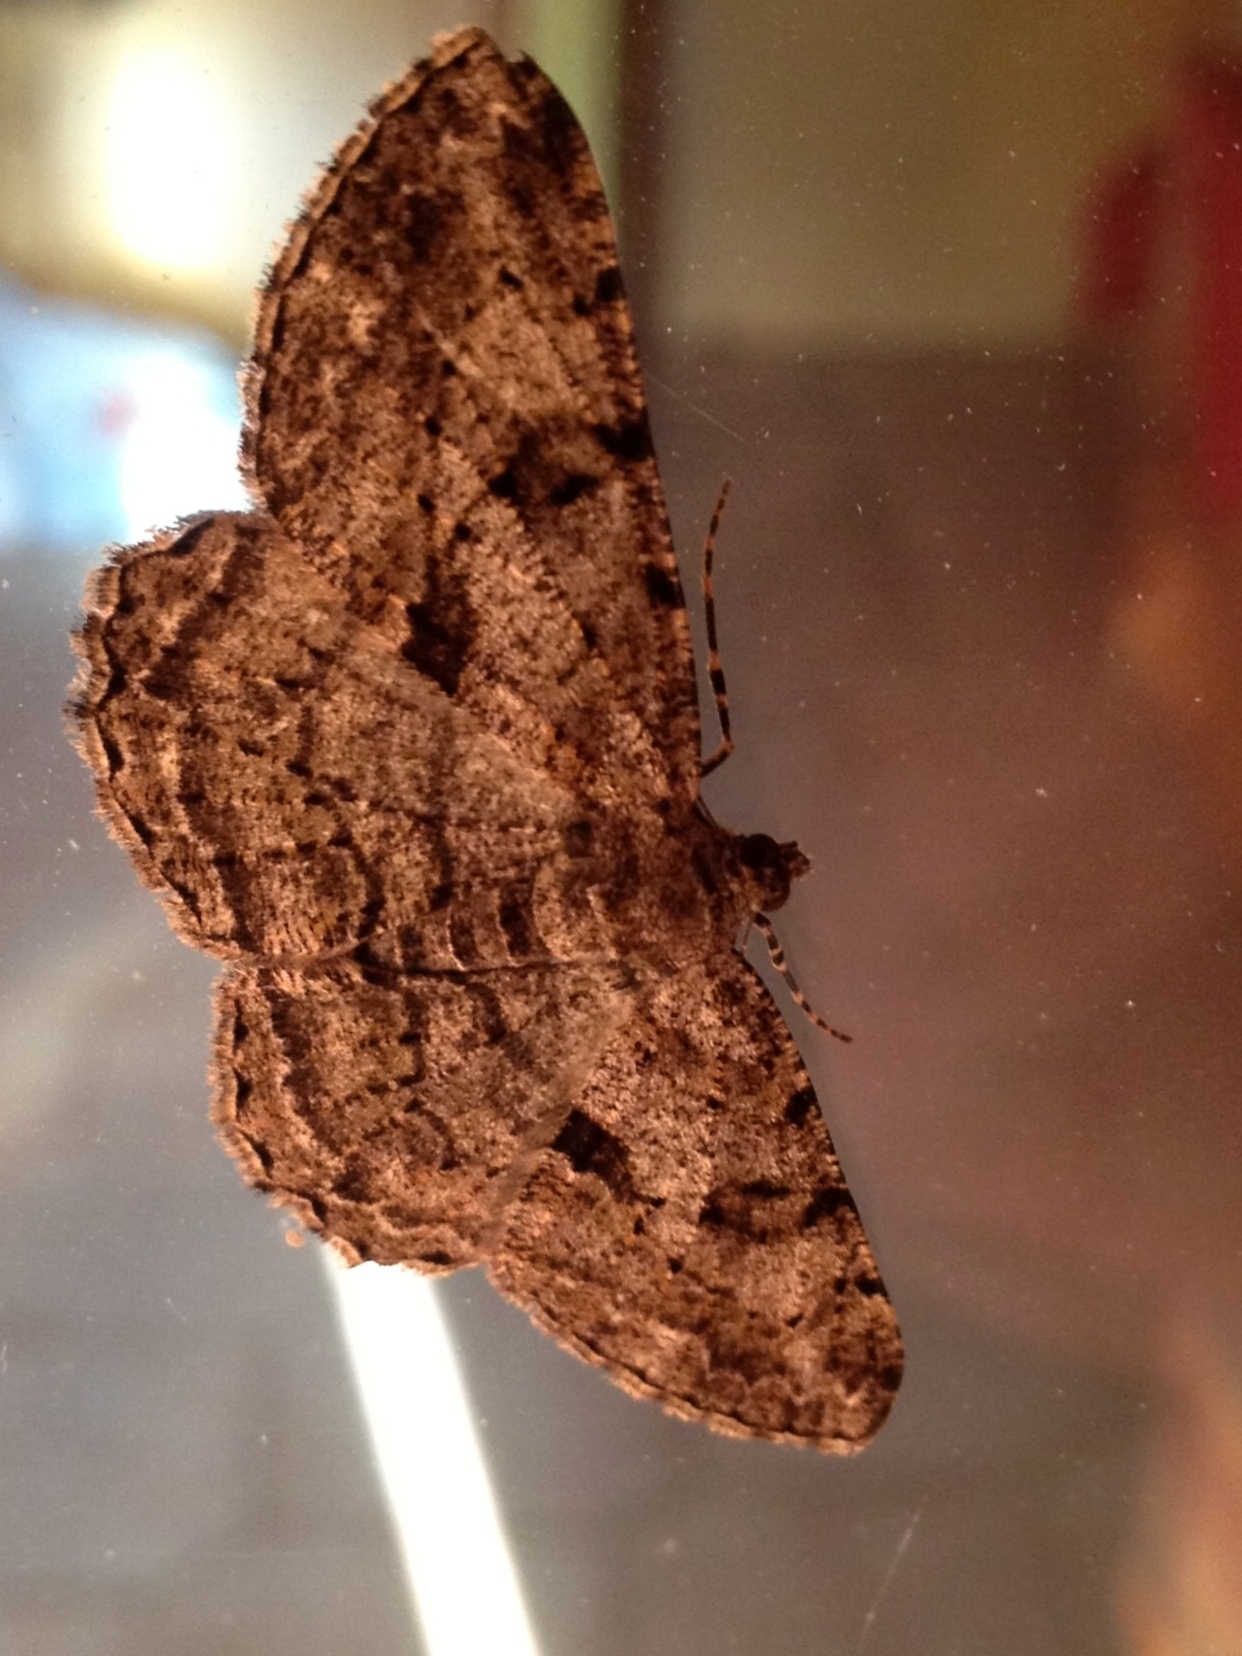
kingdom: Animalia
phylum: Arthropoda
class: Insecta
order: Lepidoptera
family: Geometridae
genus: Peribatodes
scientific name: Peribatodes rhomboidaria
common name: Willow beauty
